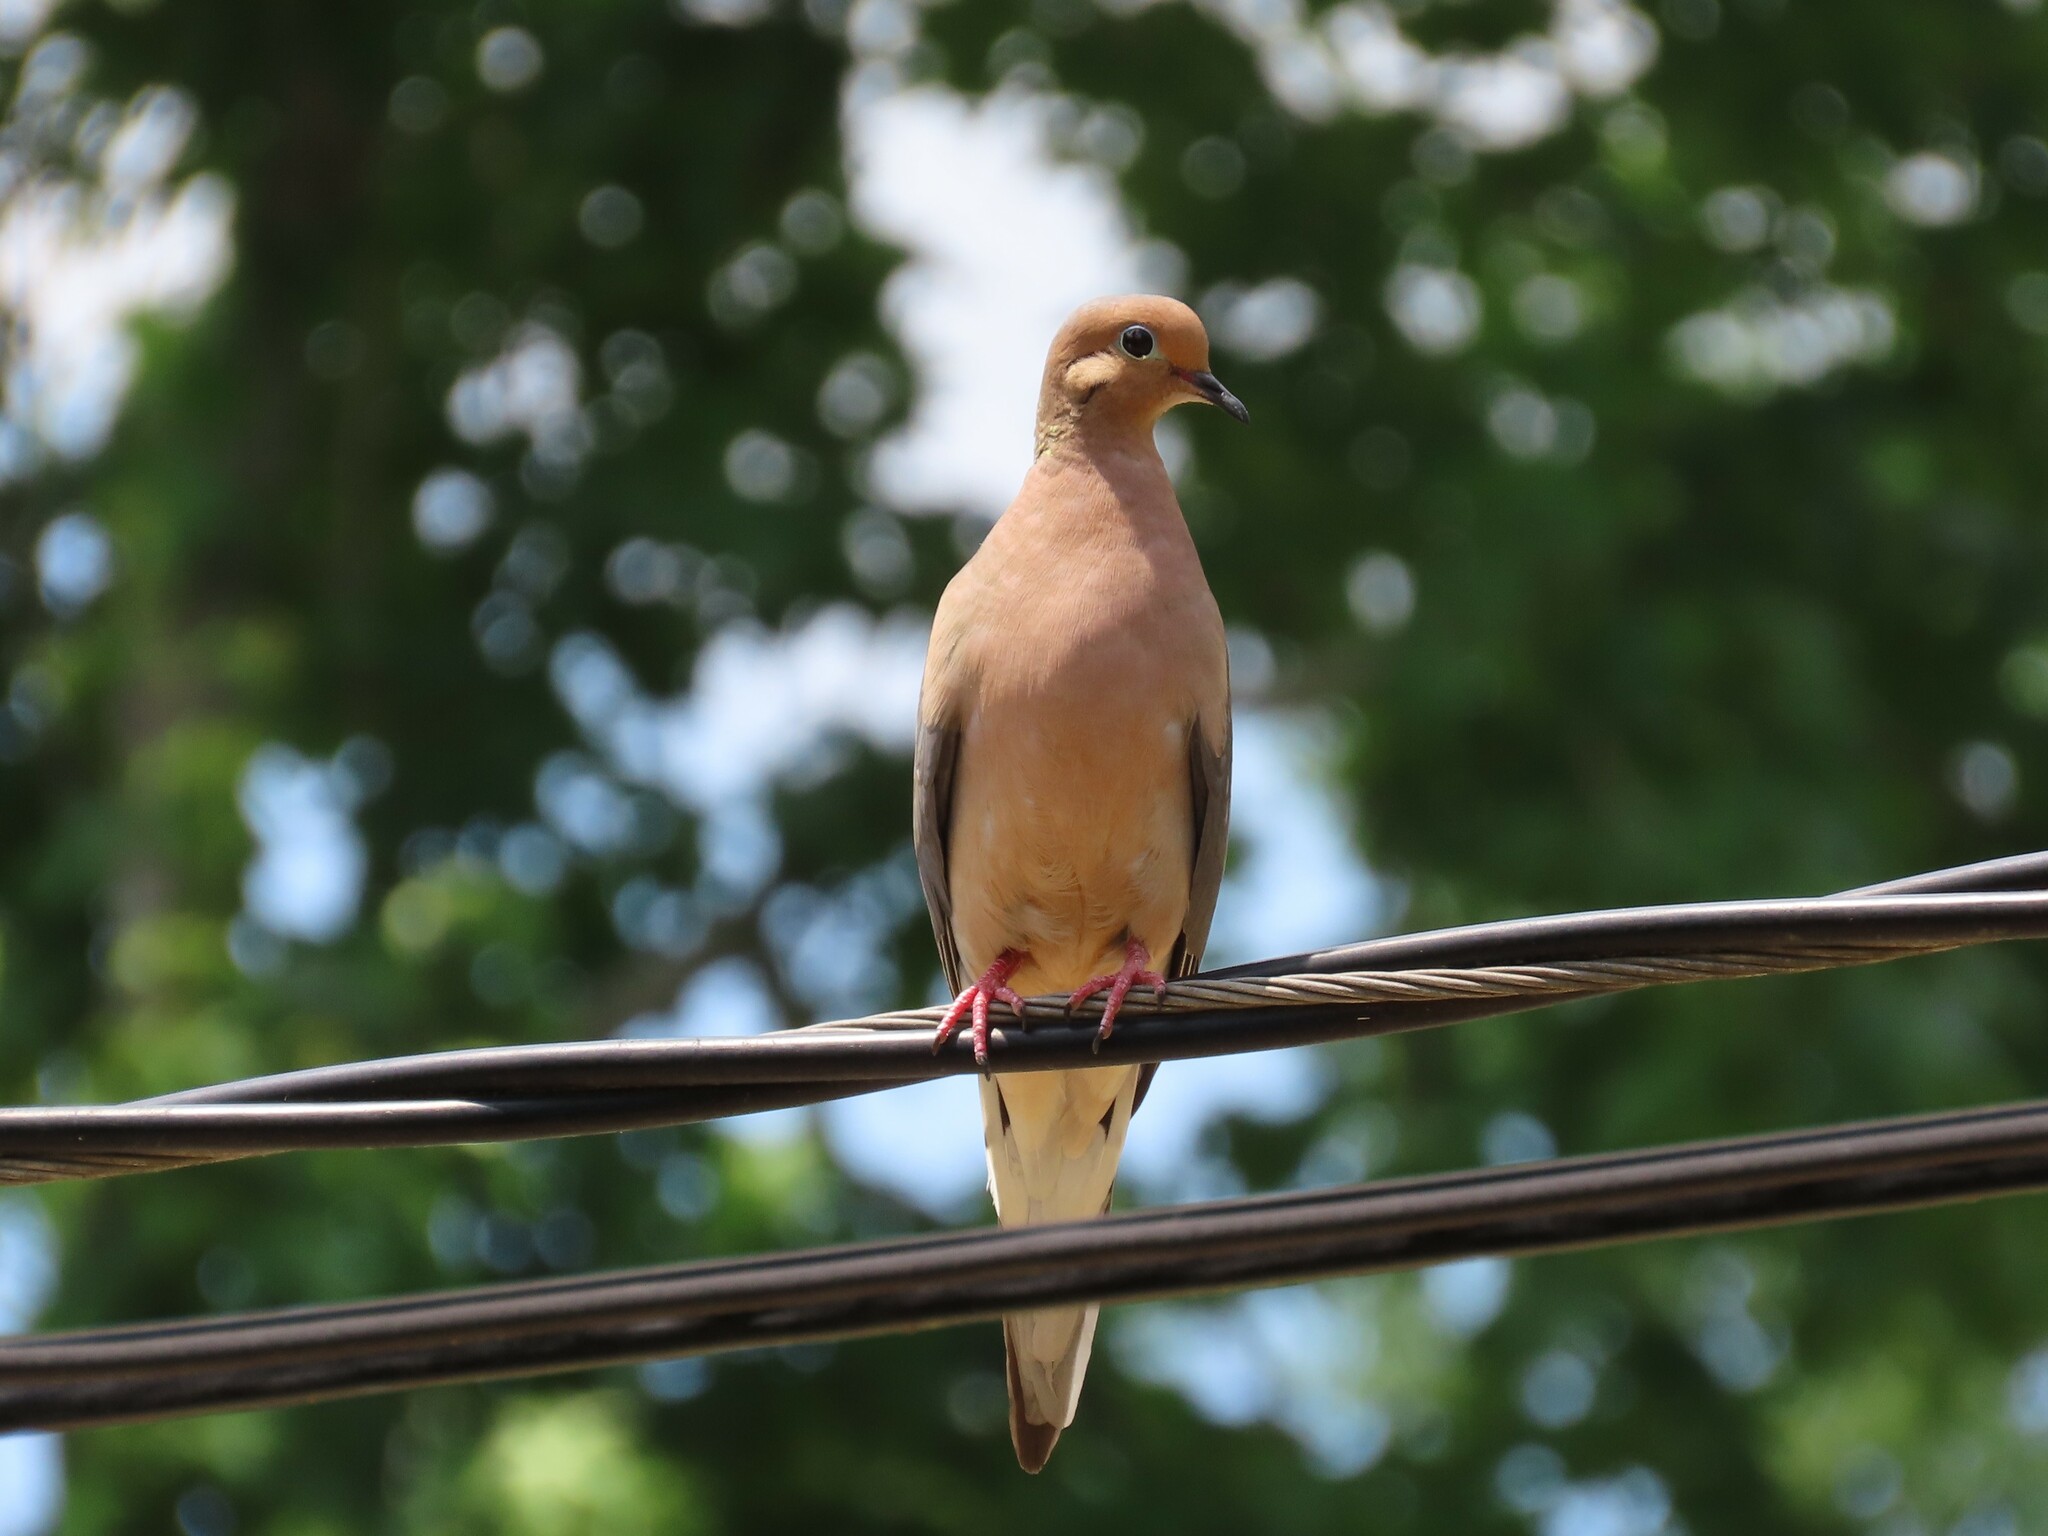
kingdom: Animalia
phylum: Chordata
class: Aves
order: Columbiformes
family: Columbidae
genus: Zenaida
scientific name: Zenaida macroura
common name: Mourning dove
